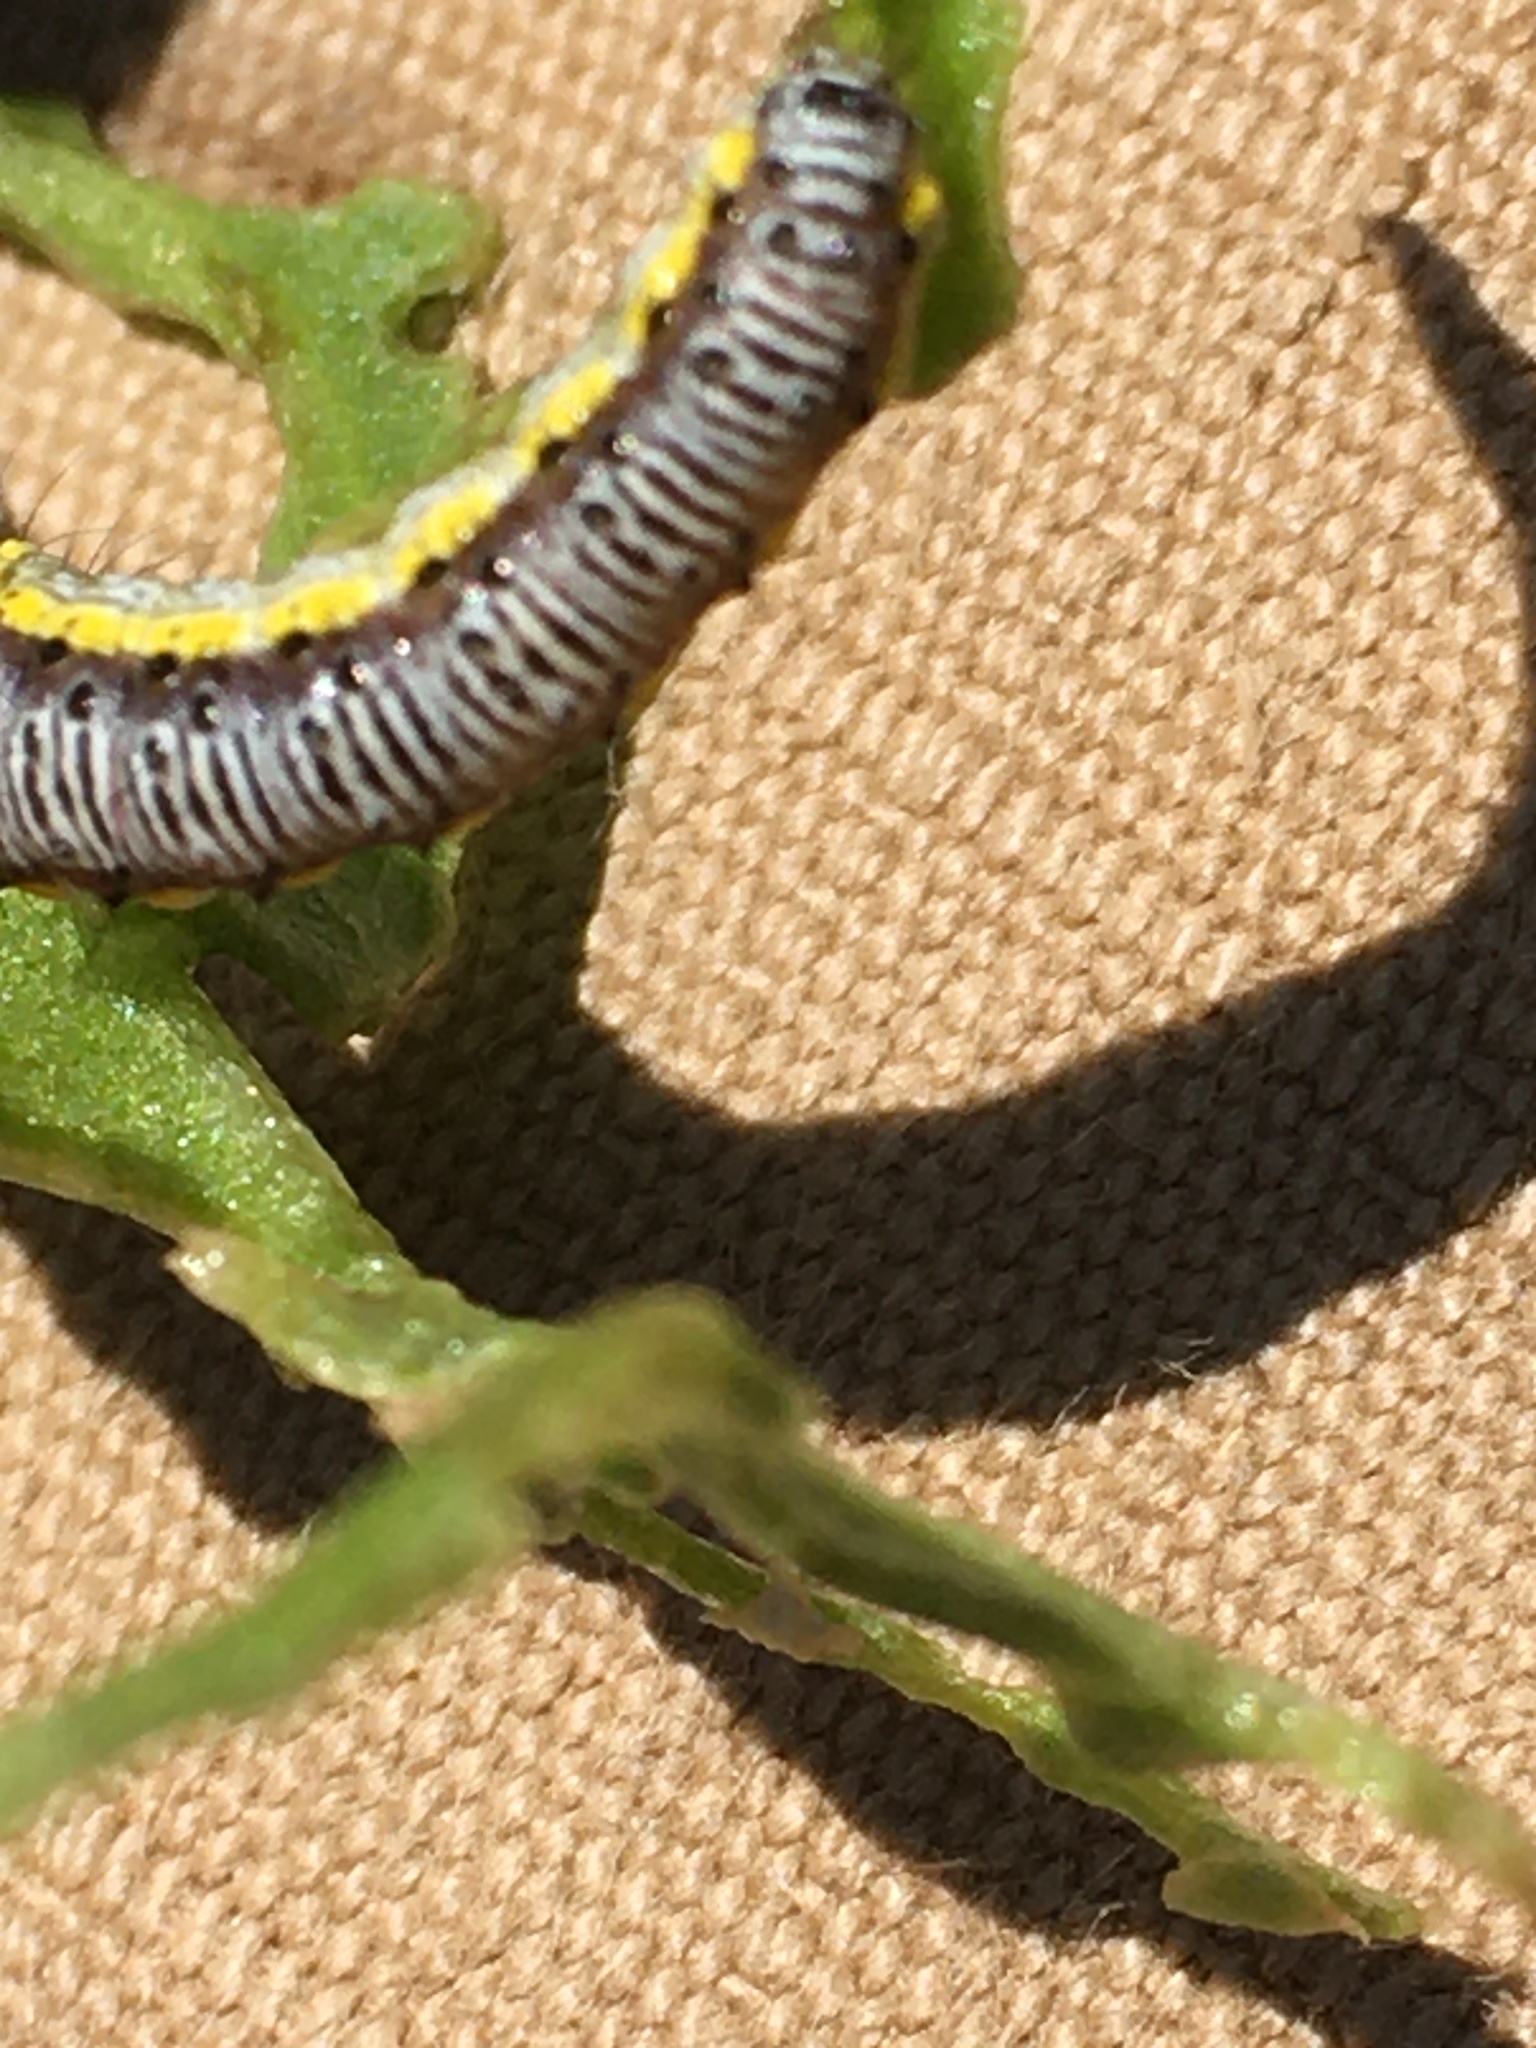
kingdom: Animalia
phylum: Arthropoda
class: Insecta
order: Lepidoptera
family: Crambidae
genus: Evergestis
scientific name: Evergestis rimosalis
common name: Cross-striped cabbageworm moth
